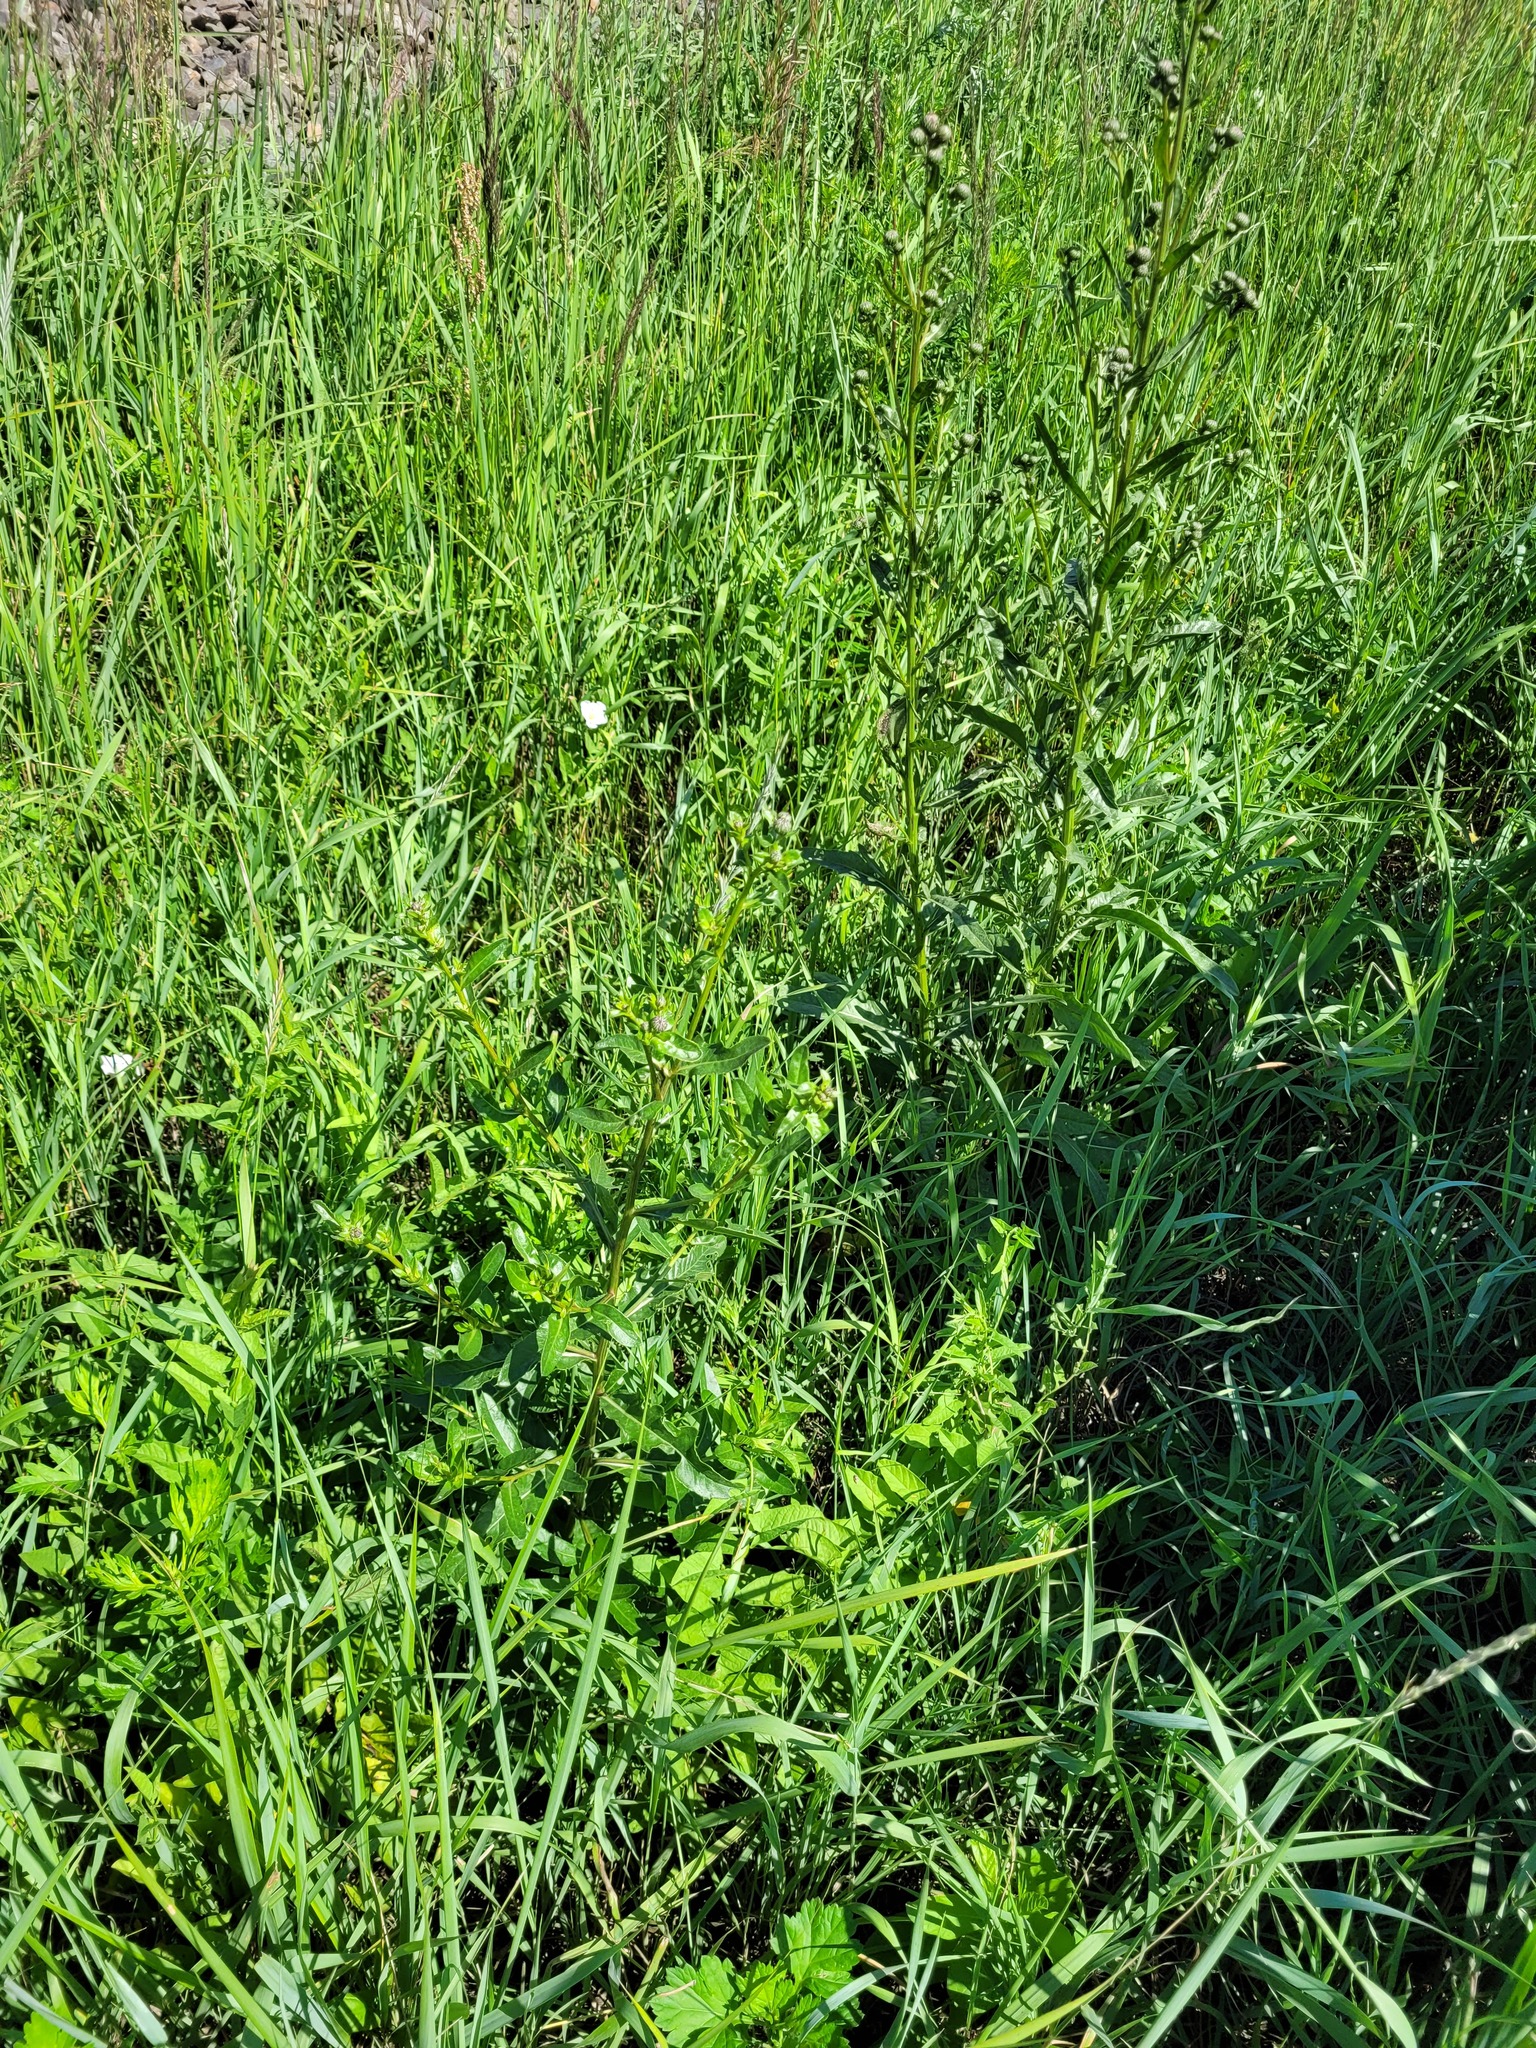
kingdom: Plantae
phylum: Tracheophyta
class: Magnoliopsida
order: Asterales
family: Asteraceae
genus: Cirsium
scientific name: Cirsium arvense
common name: Creeping thistle
